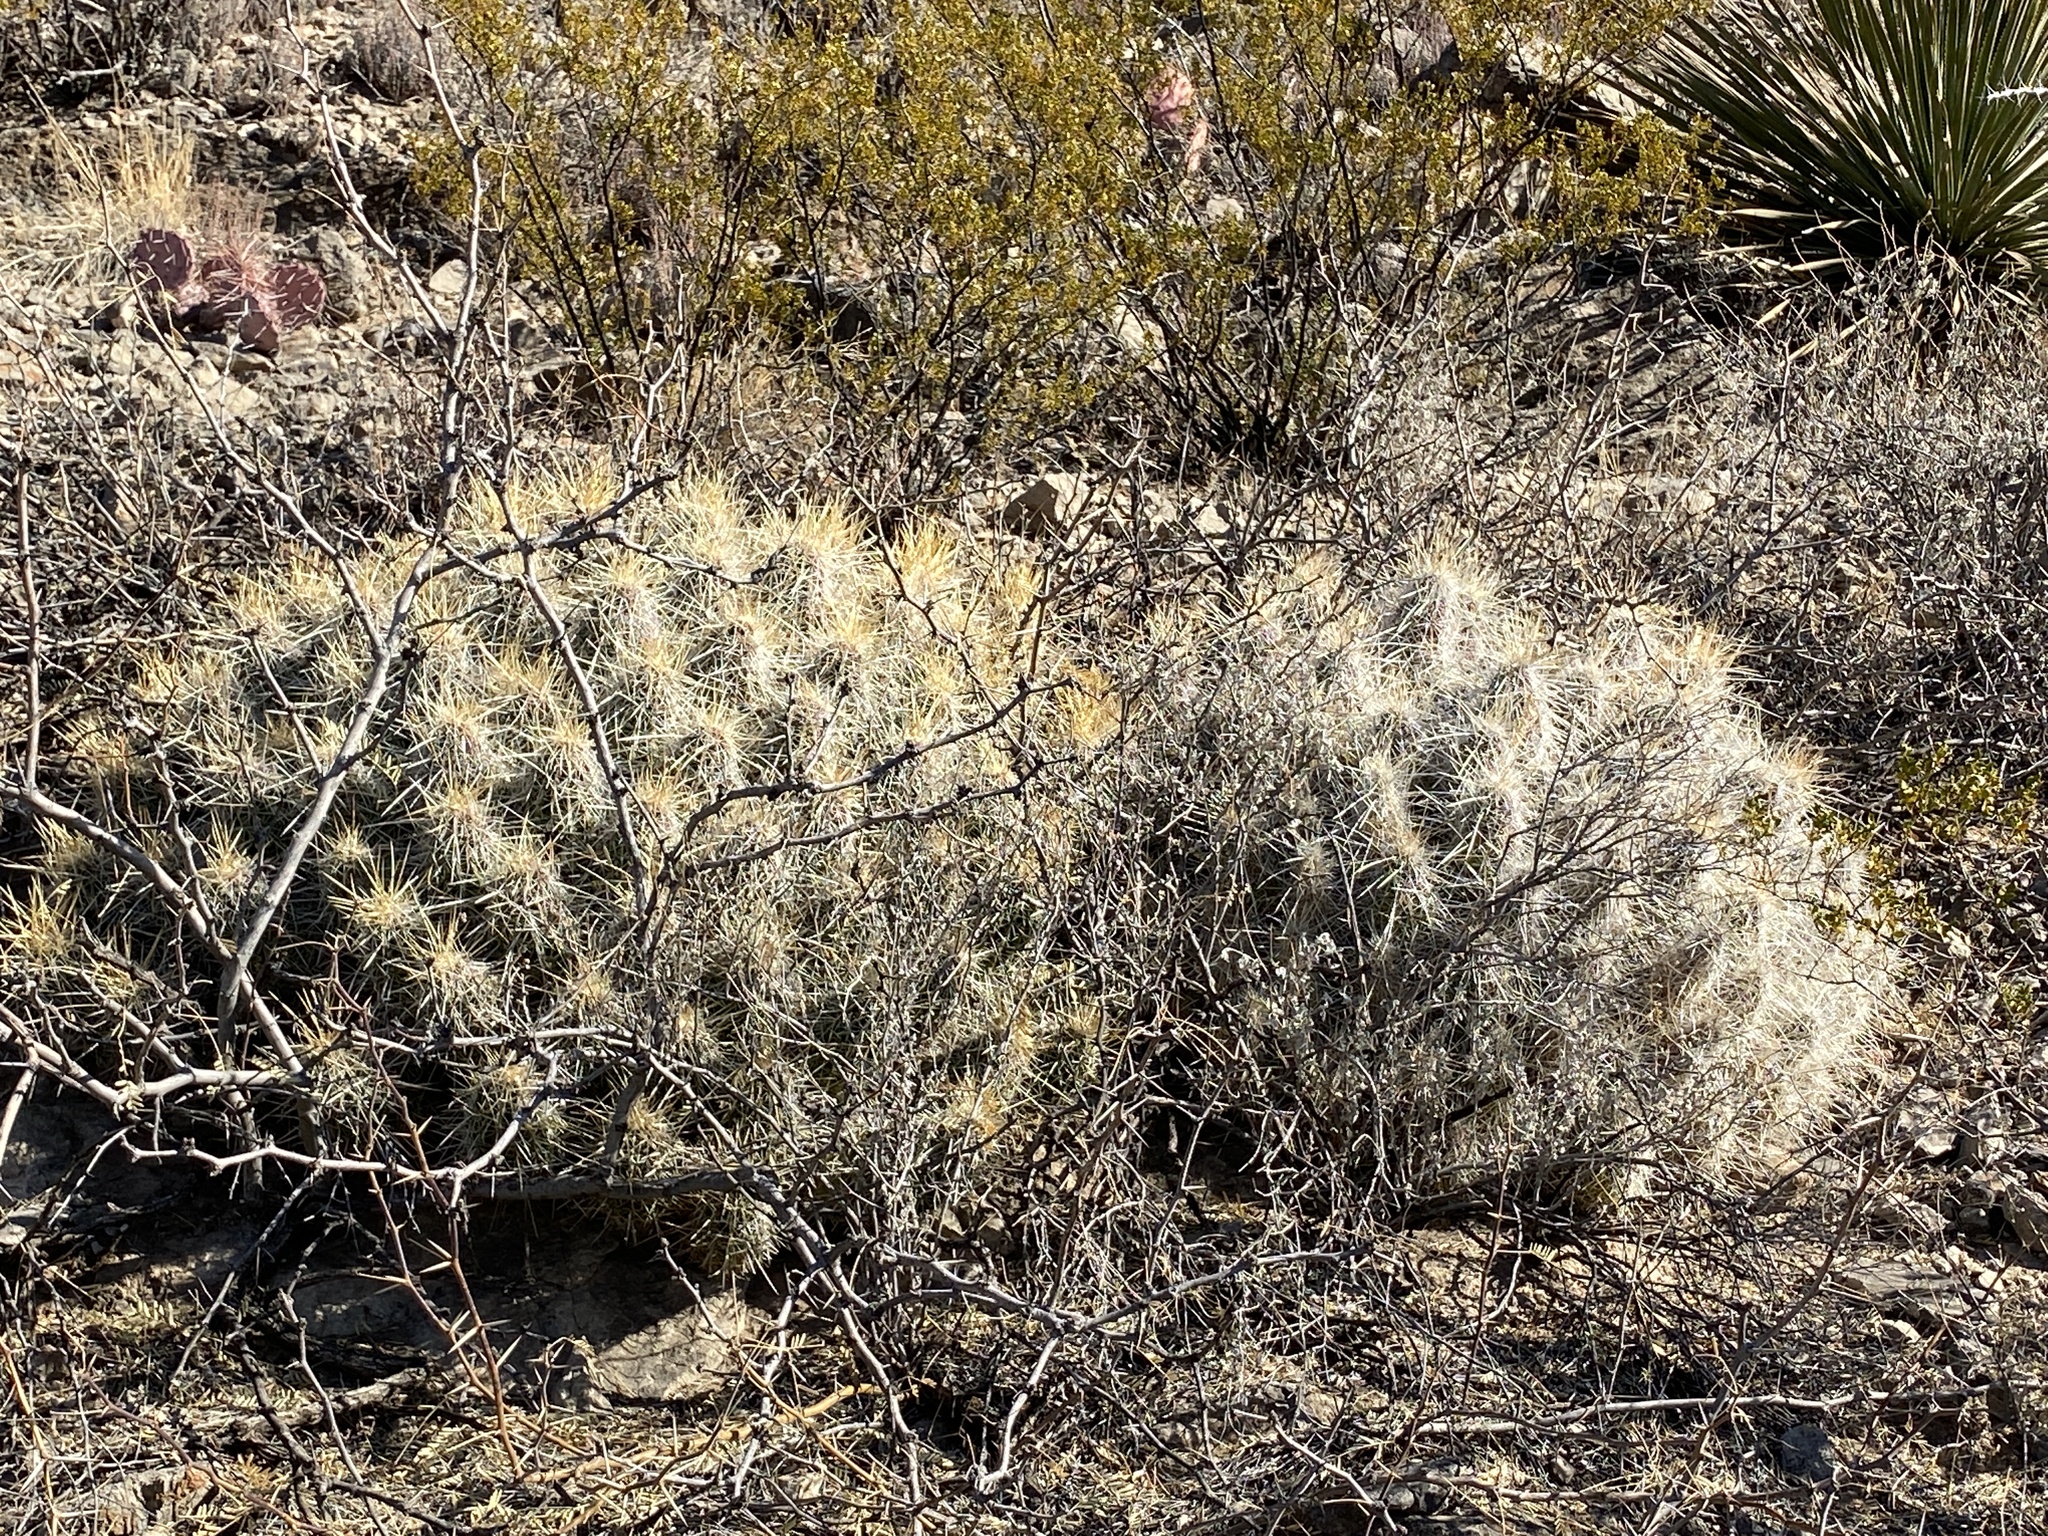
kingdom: Plantae
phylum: Tracheophyta
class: Magnoliopsida
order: Caryophyllales
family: Cactaceae
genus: Echinocereus
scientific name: Echinocereus stramineus
